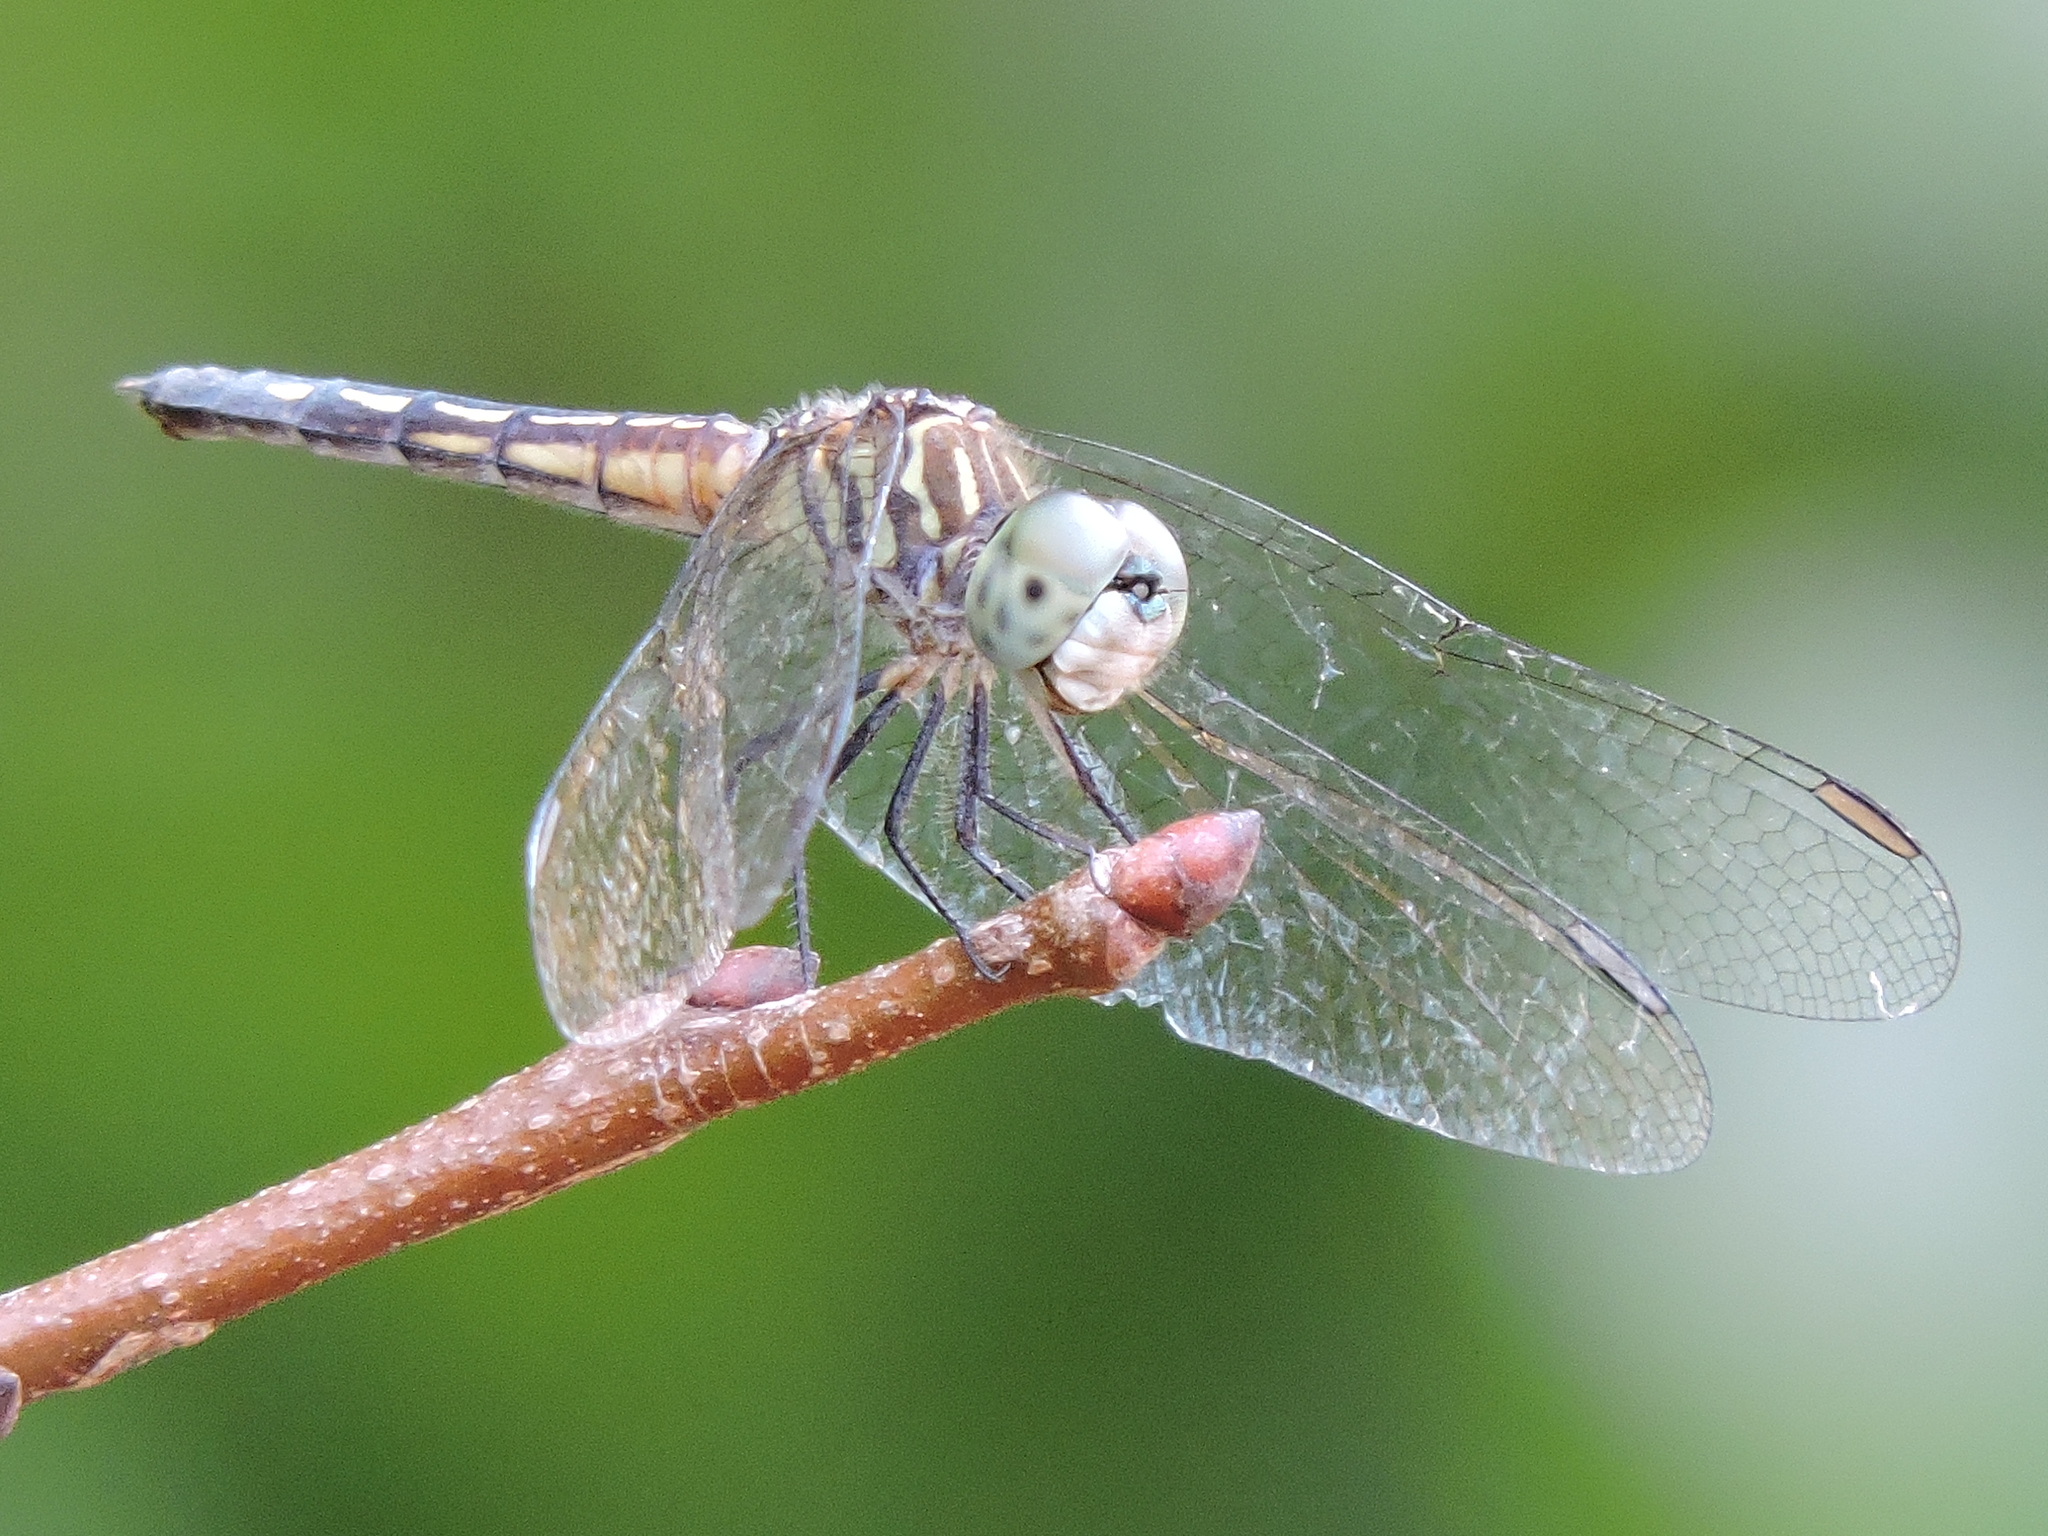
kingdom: Animalia
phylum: Arthropoda
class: Insecta
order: Odonata
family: Libellulidae
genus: Pachydiplax
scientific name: Pachydiplax longipennis
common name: Blue dasher
